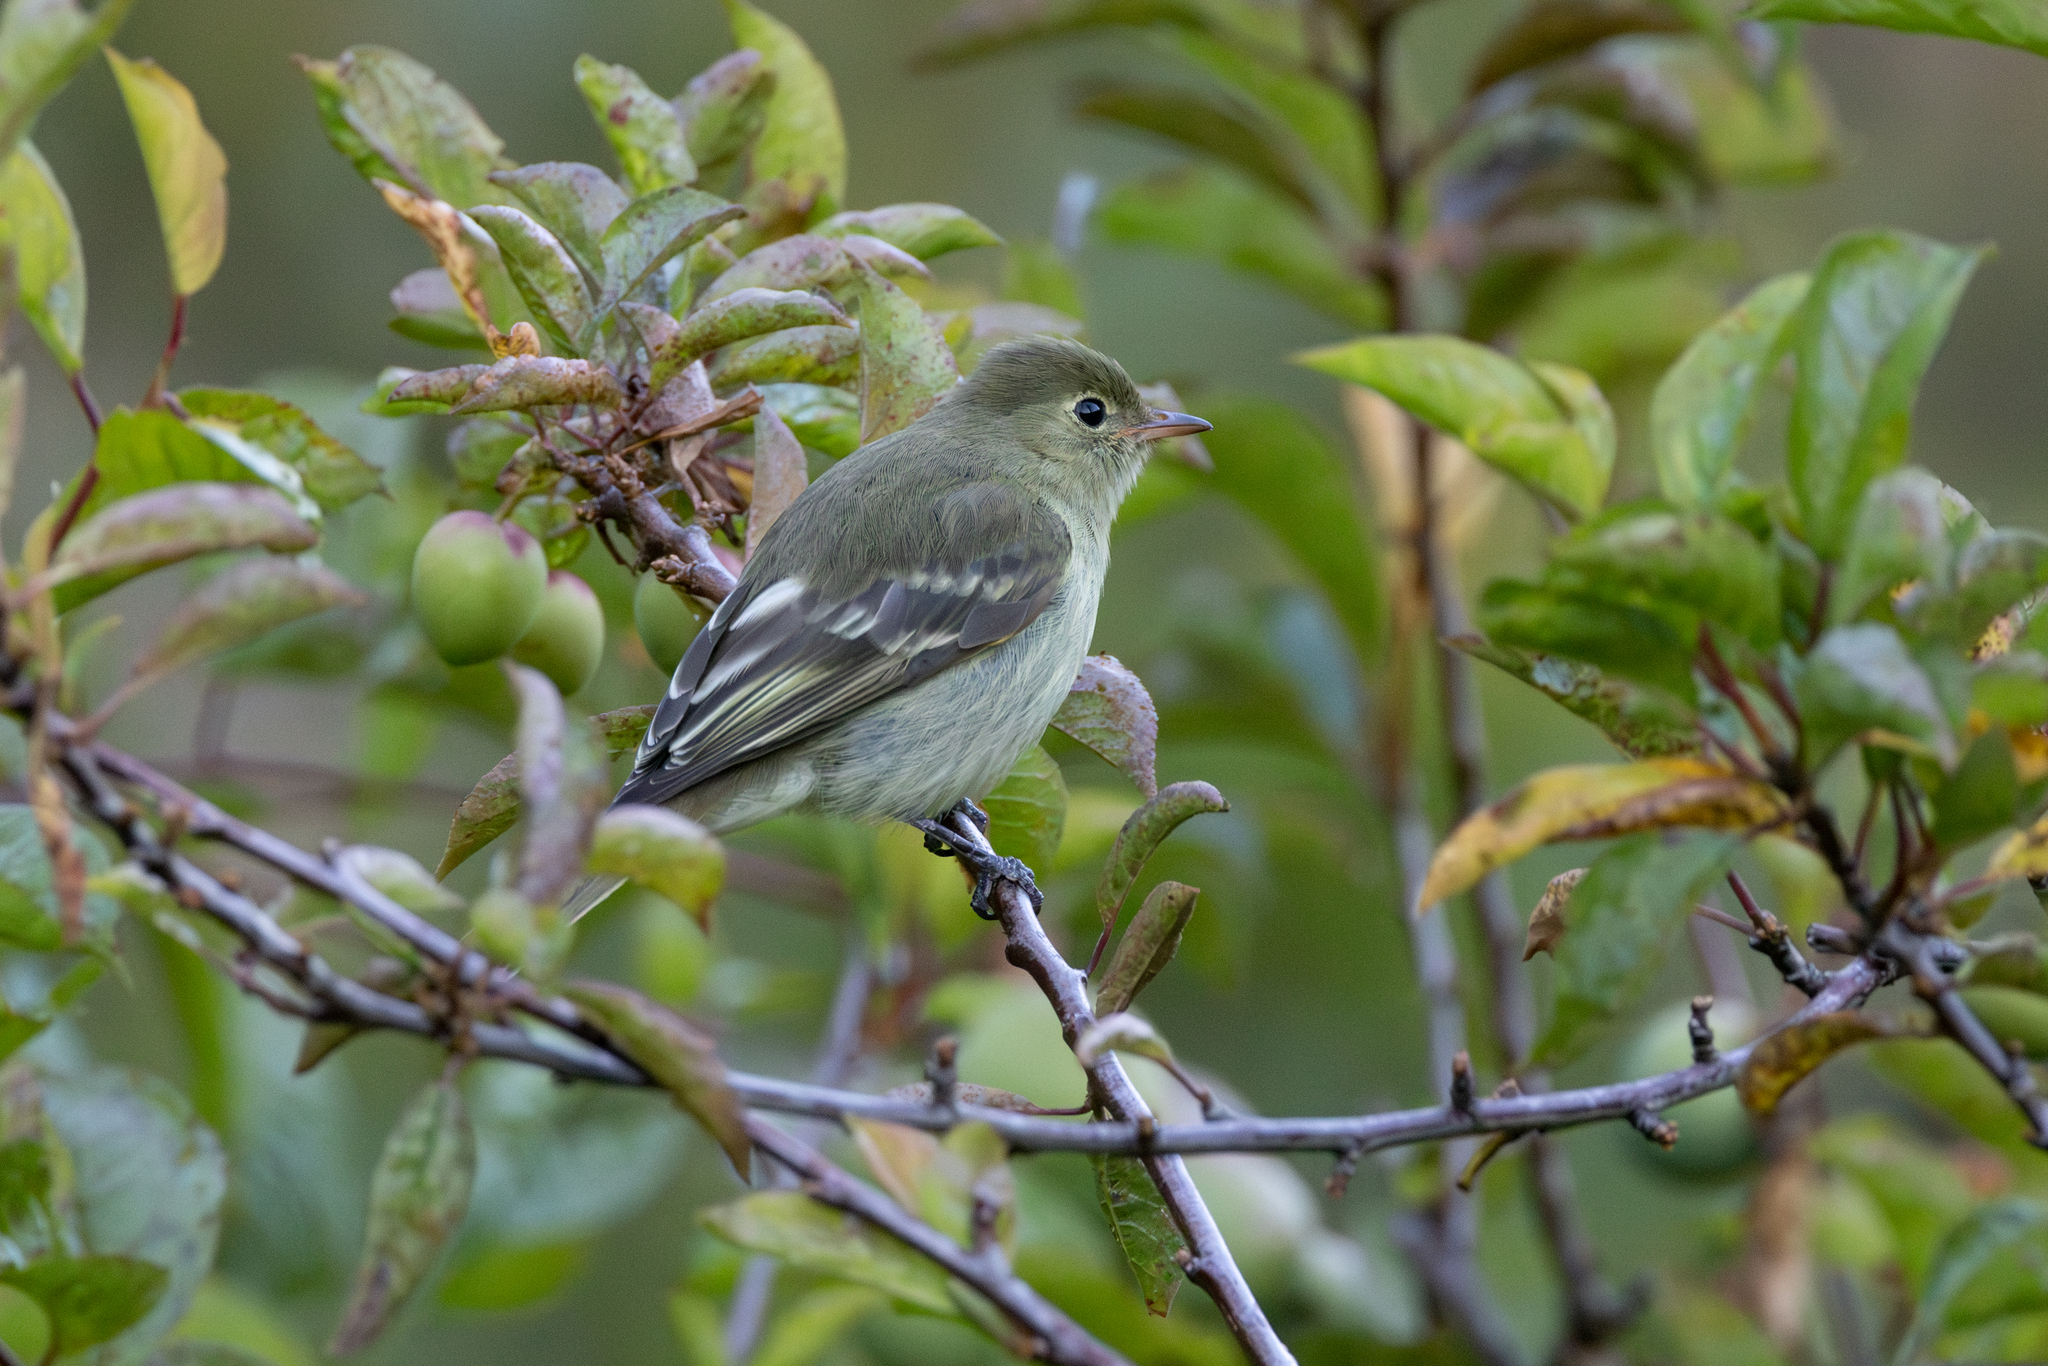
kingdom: Animalia
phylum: Chordata
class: Aves
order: Passeriformes
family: Tyrannidae
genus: Elaenia
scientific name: Elaenia frantzii
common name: Mountain elaenia
